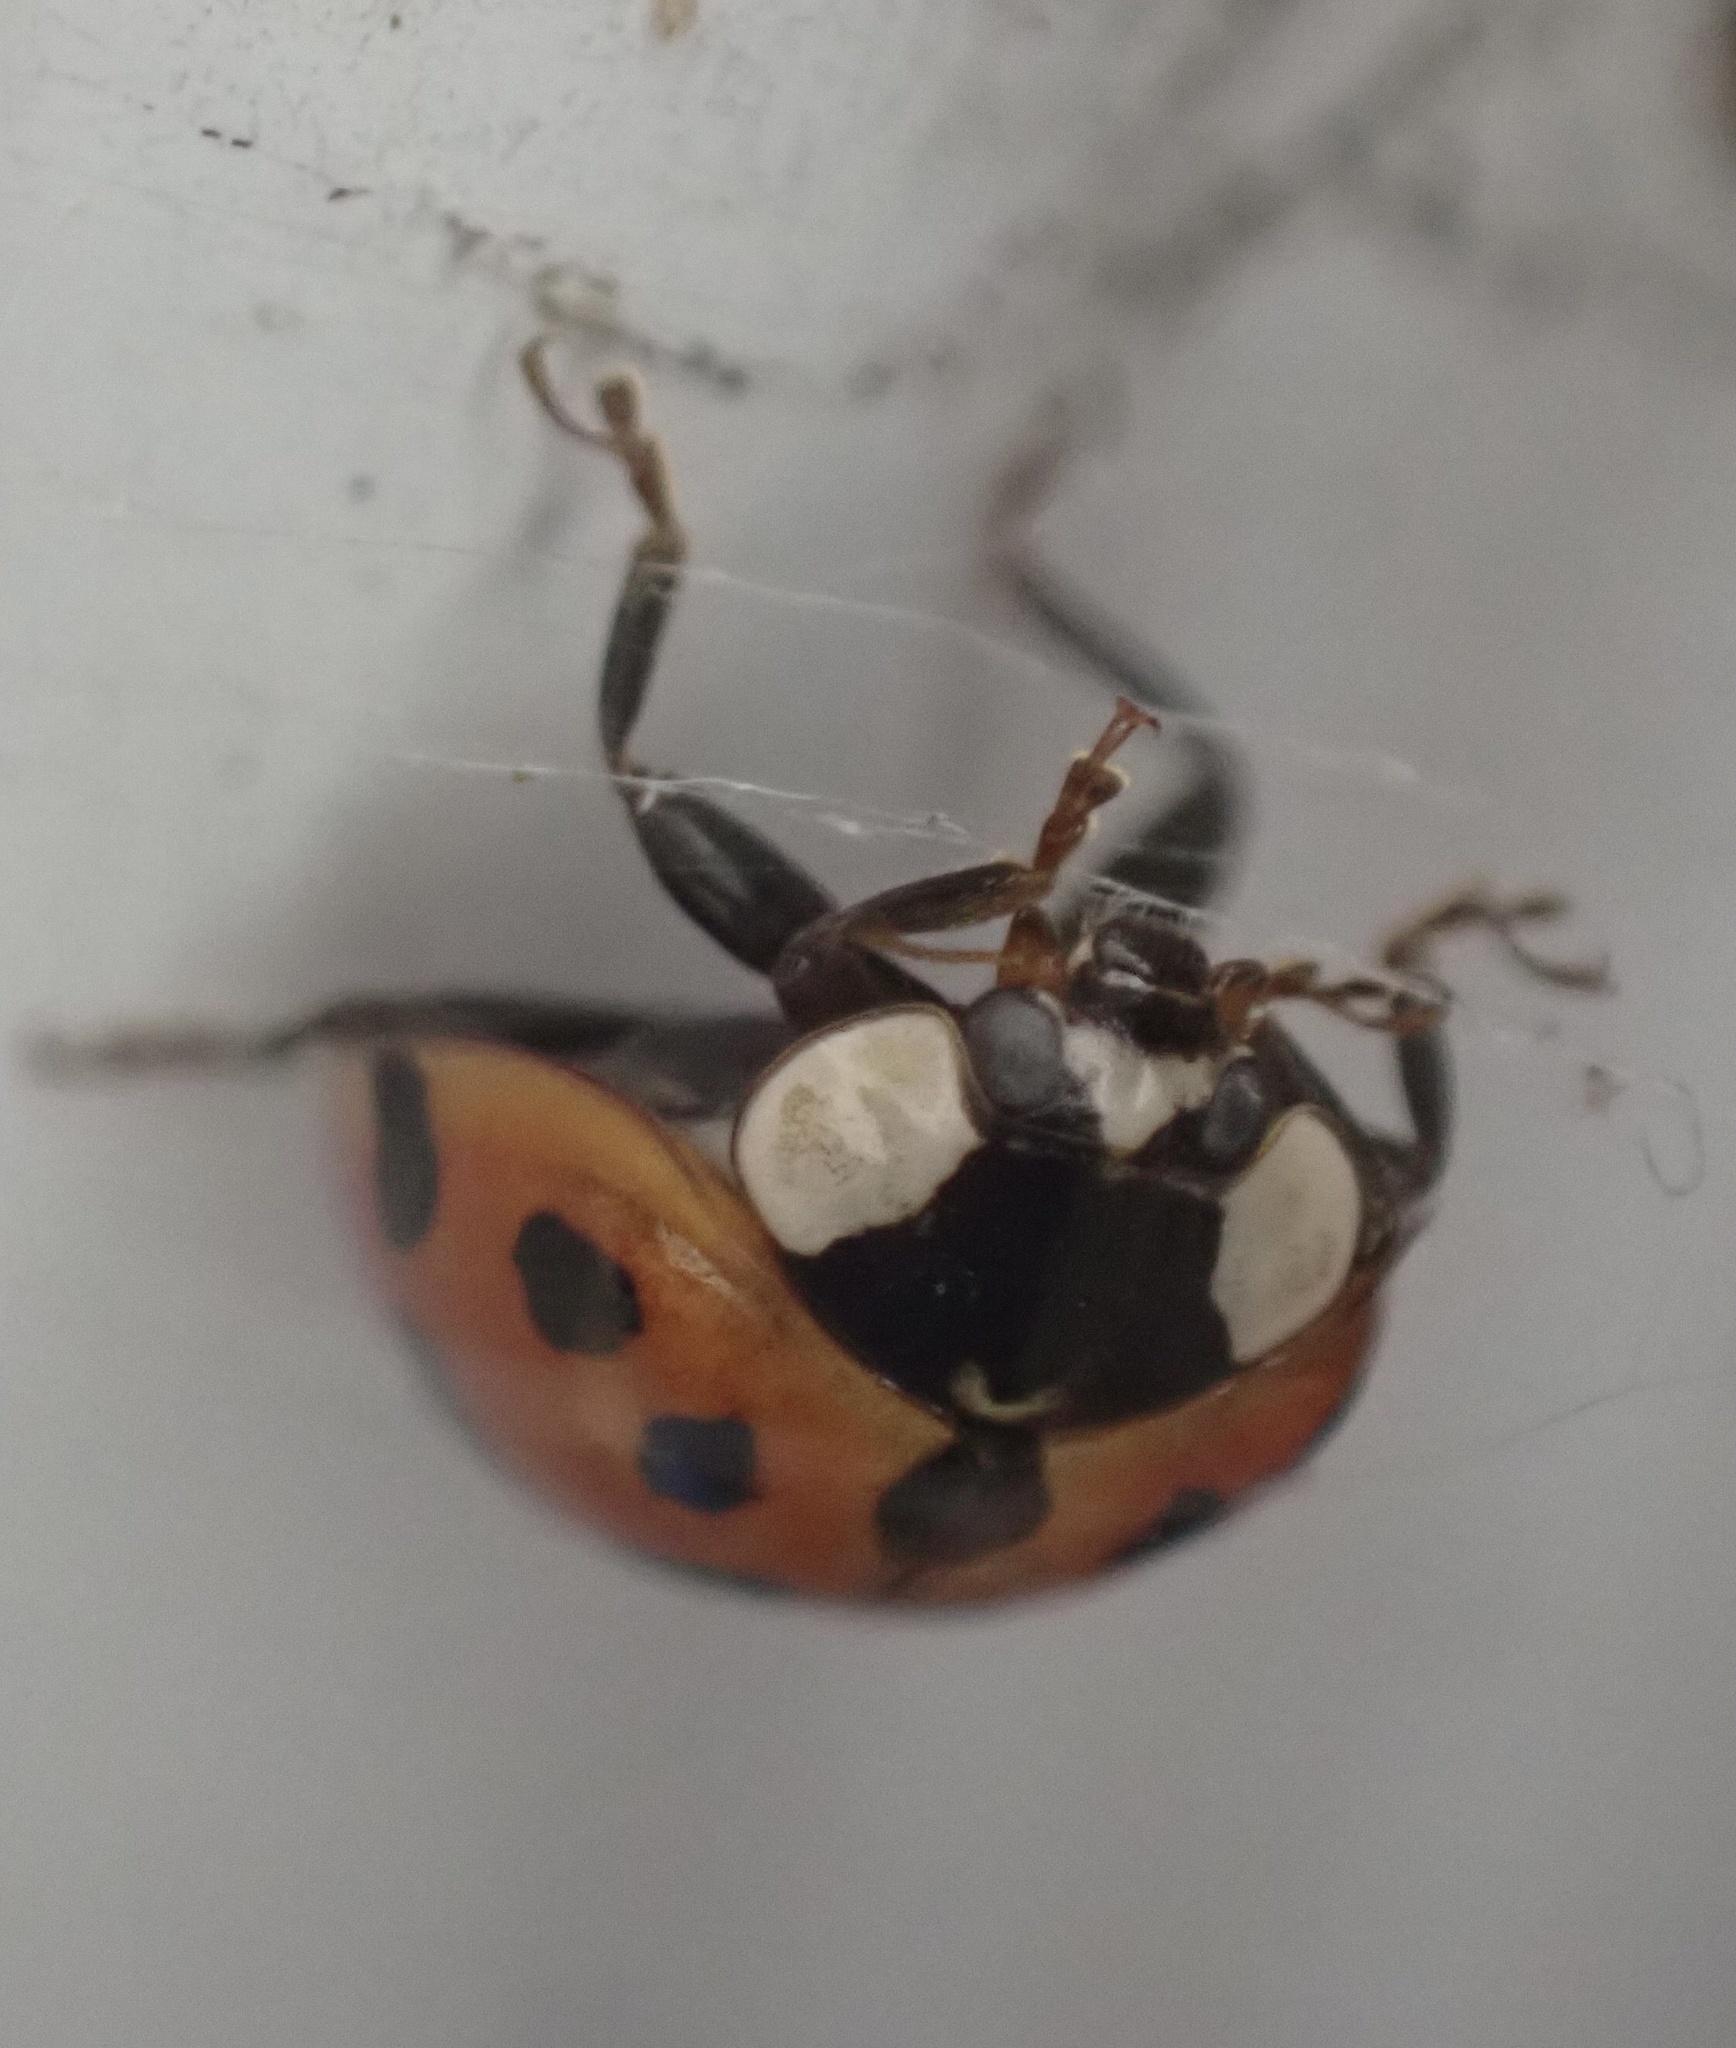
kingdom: Animalia
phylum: Arthropoda
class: Insecta
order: Coleoptera
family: Coccinellidae
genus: Harmonia
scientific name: Harmonia axyridis
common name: Harlequin ladybird
